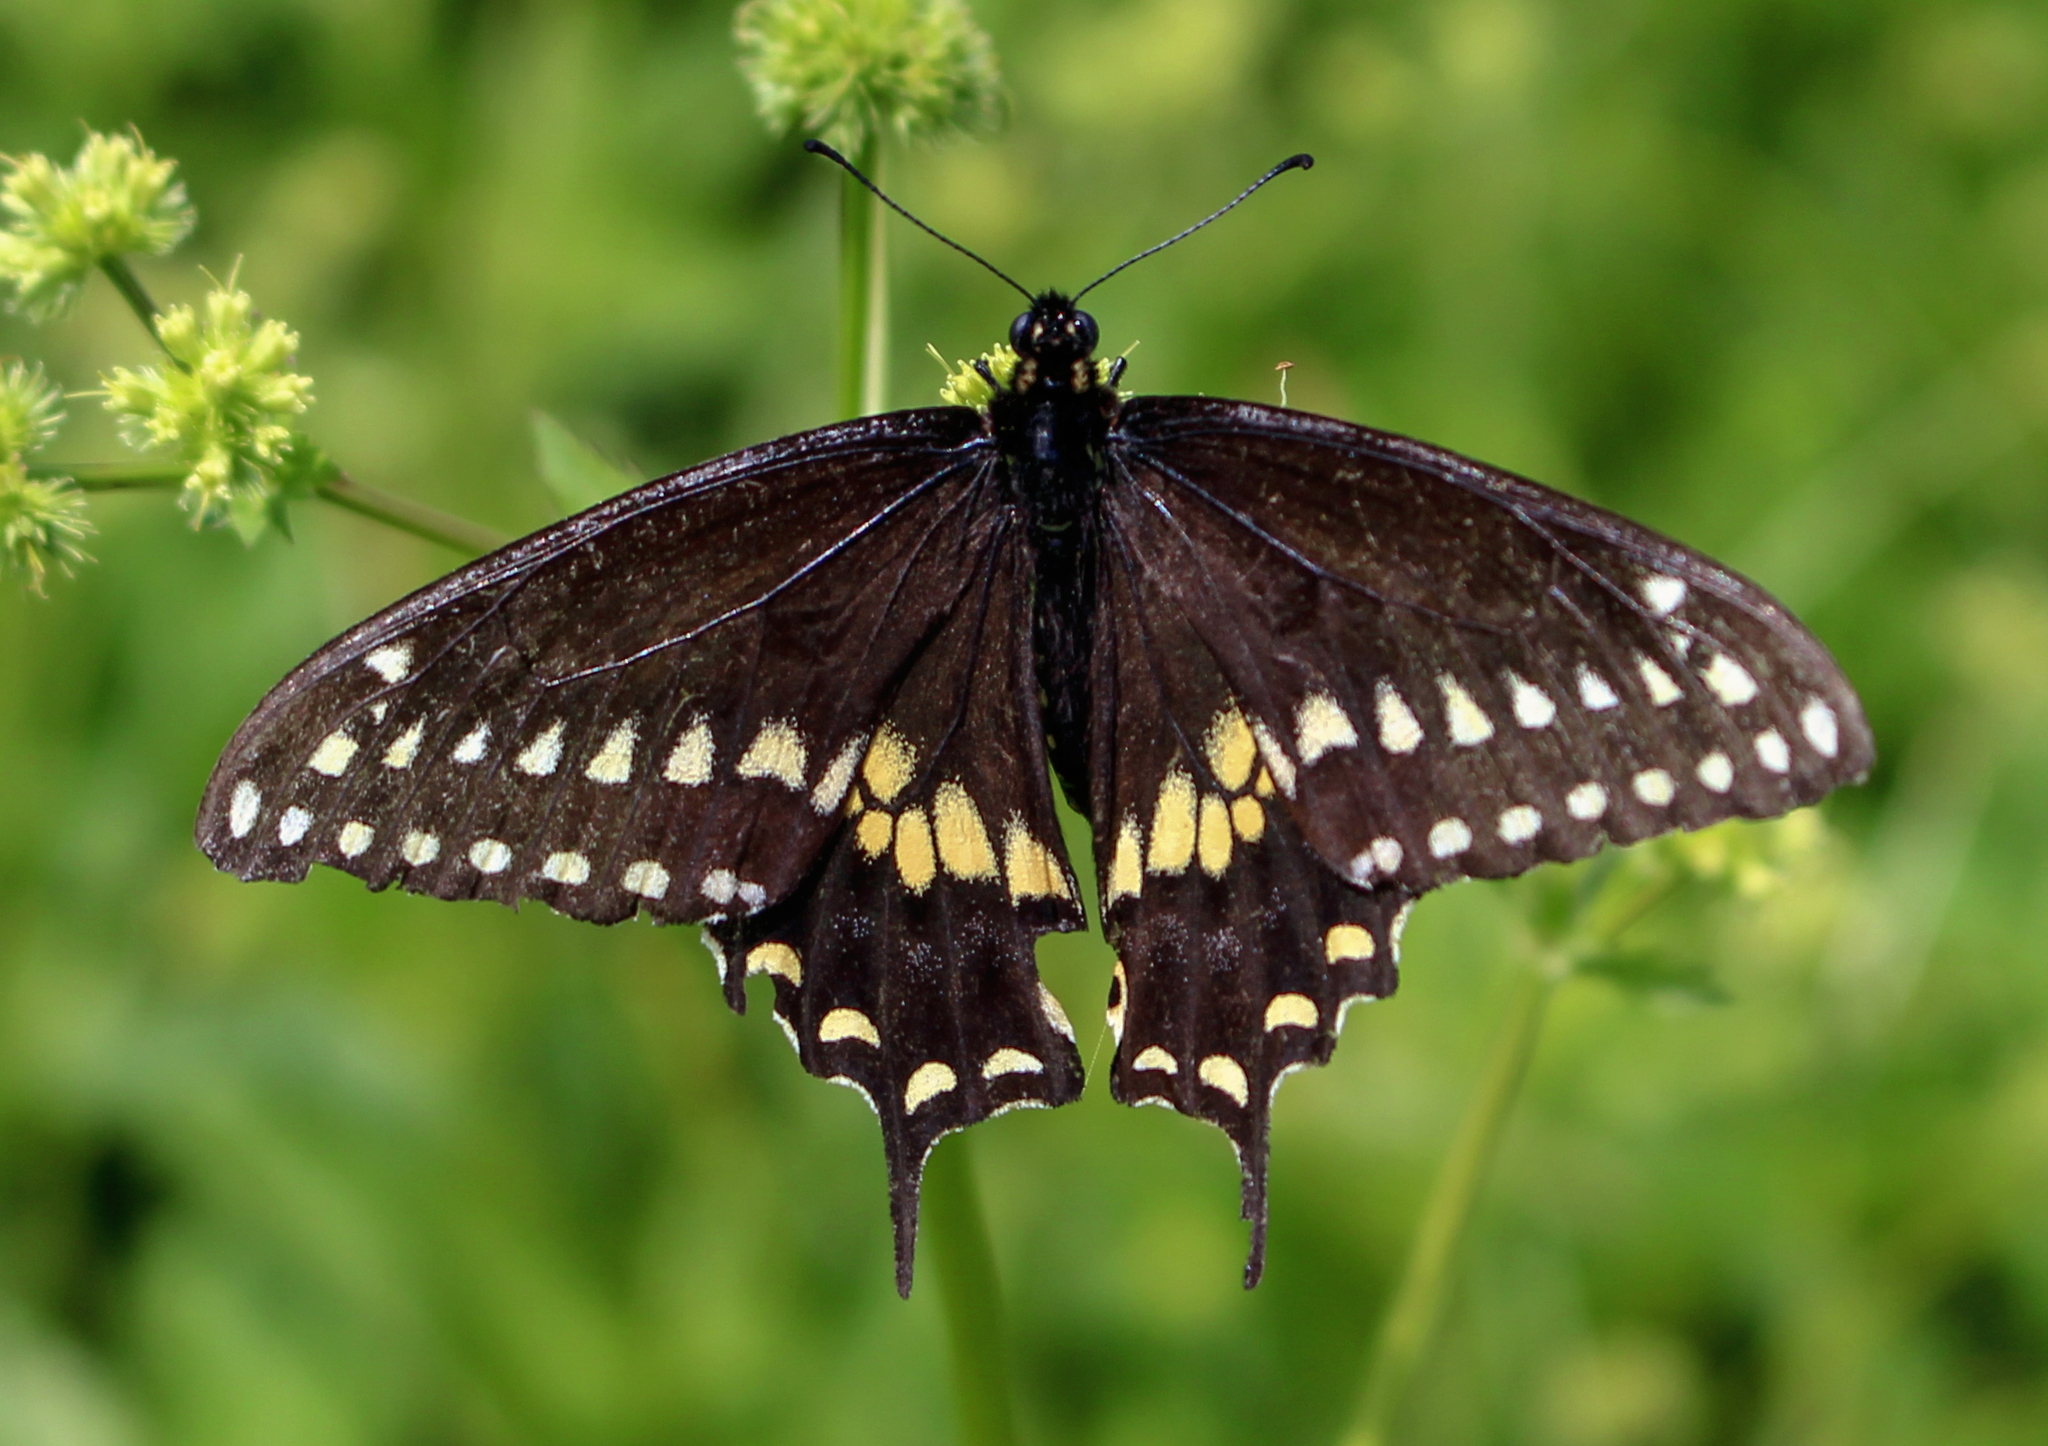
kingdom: Animalia
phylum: Arthropoda
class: Insecta
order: Lepidoptera
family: Papilionidae
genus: Papilio
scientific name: Papilio polyxenes
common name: Black swallowtail
